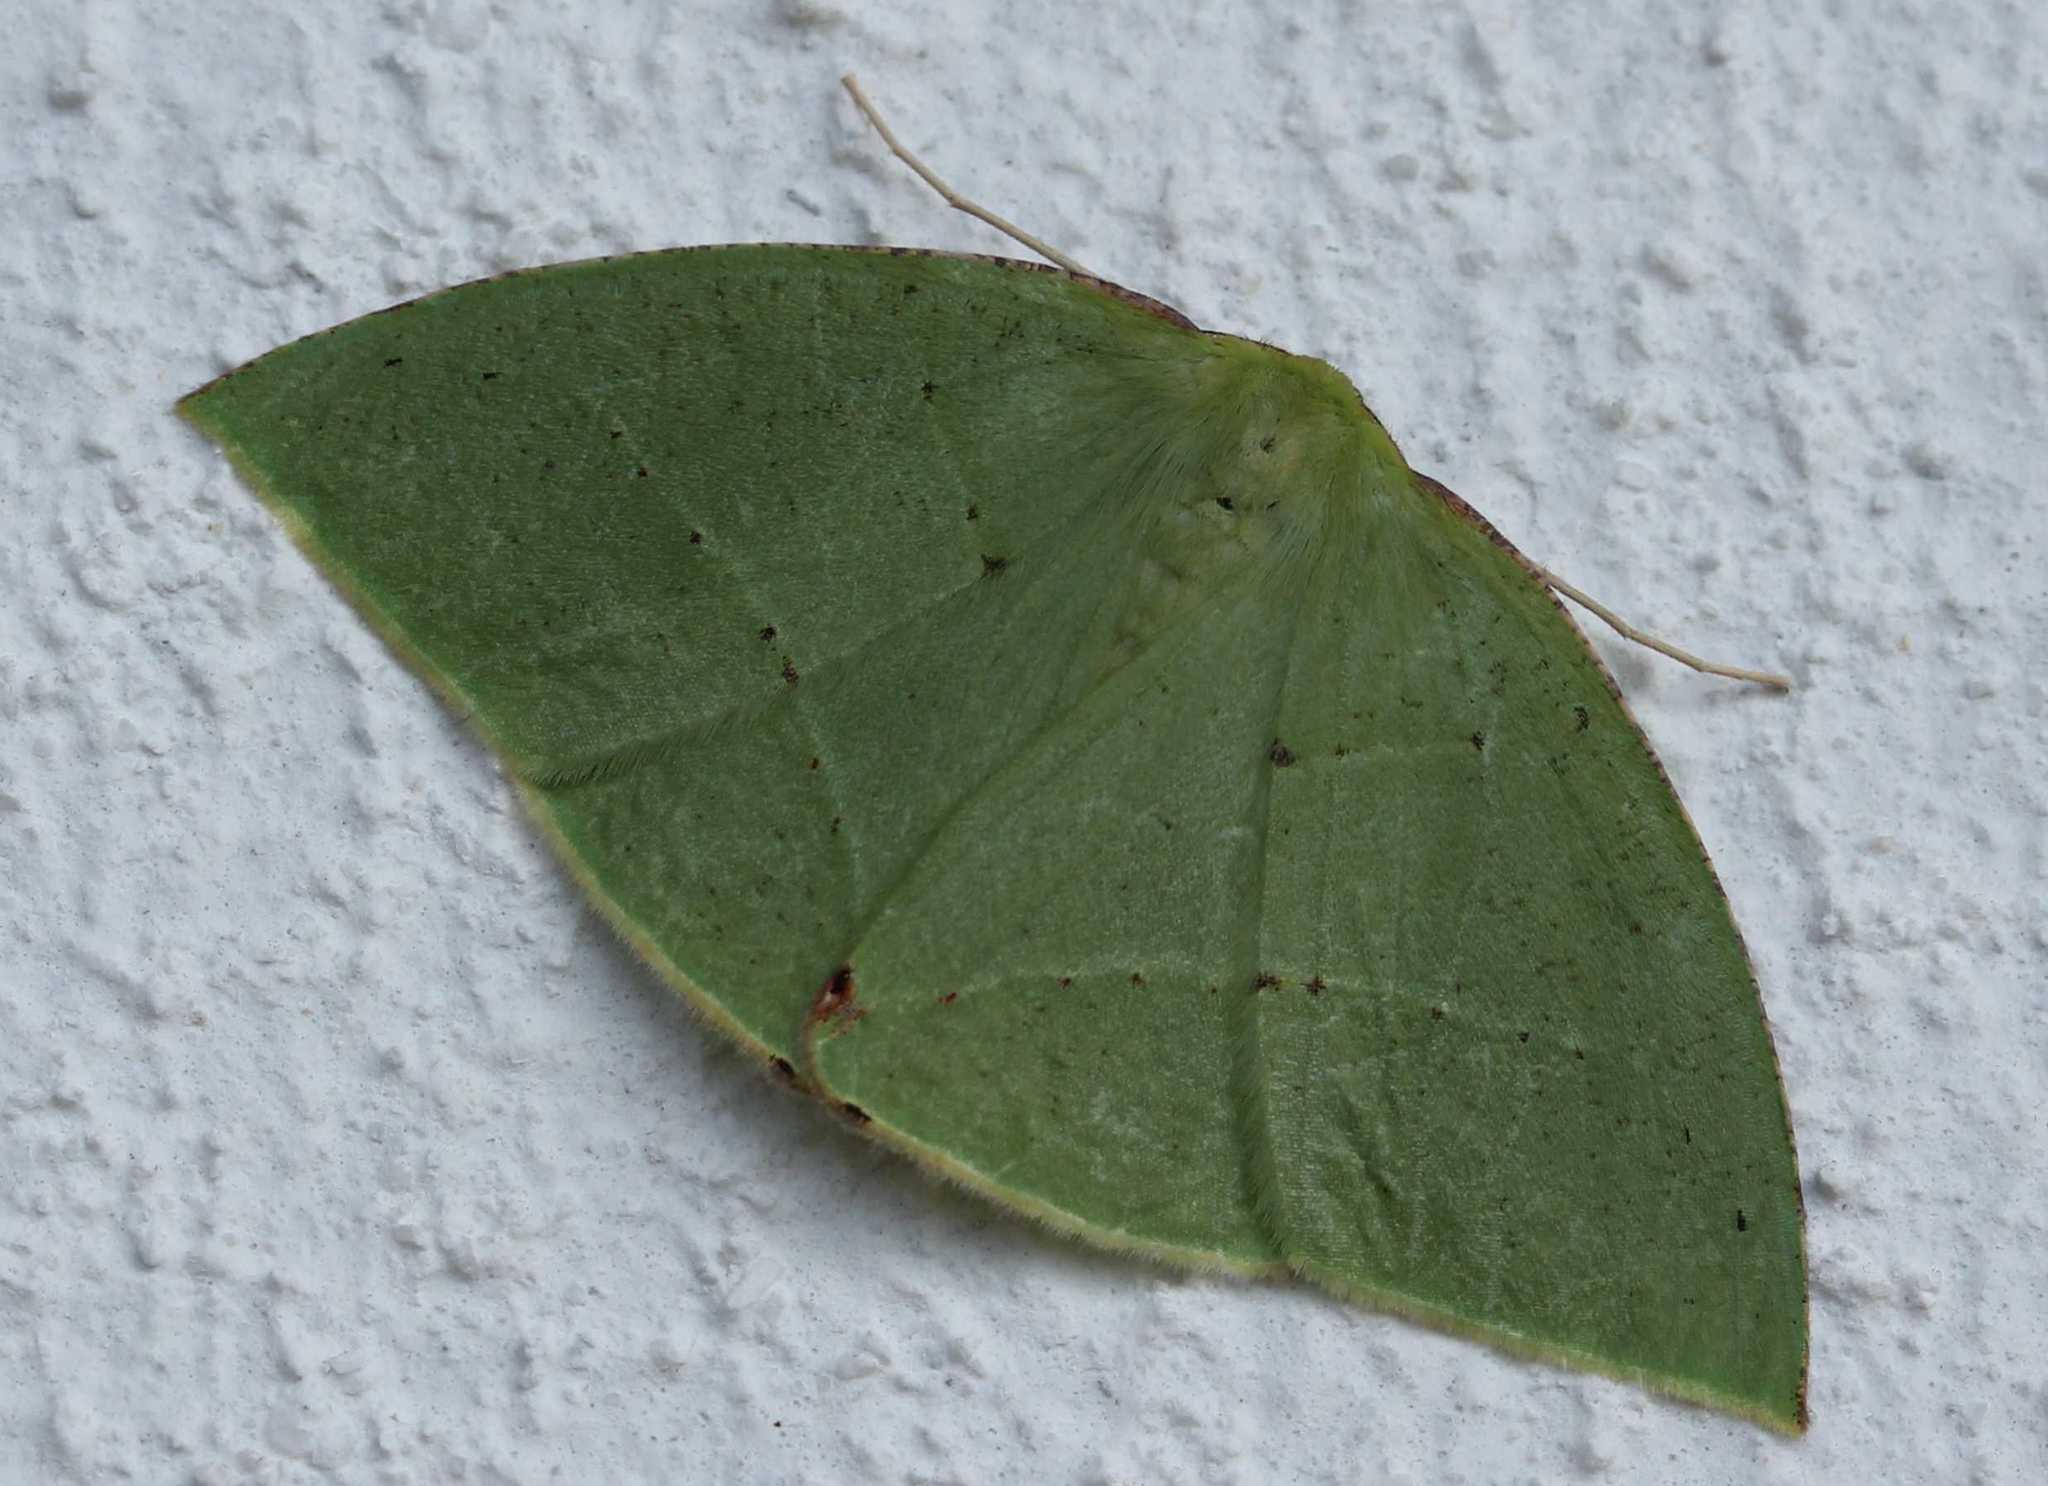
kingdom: Animalia
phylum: Arthropoda
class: Insecta
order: Lepidoptera
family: Geometridae
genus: Phyle
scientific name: Phyle aspilotos
